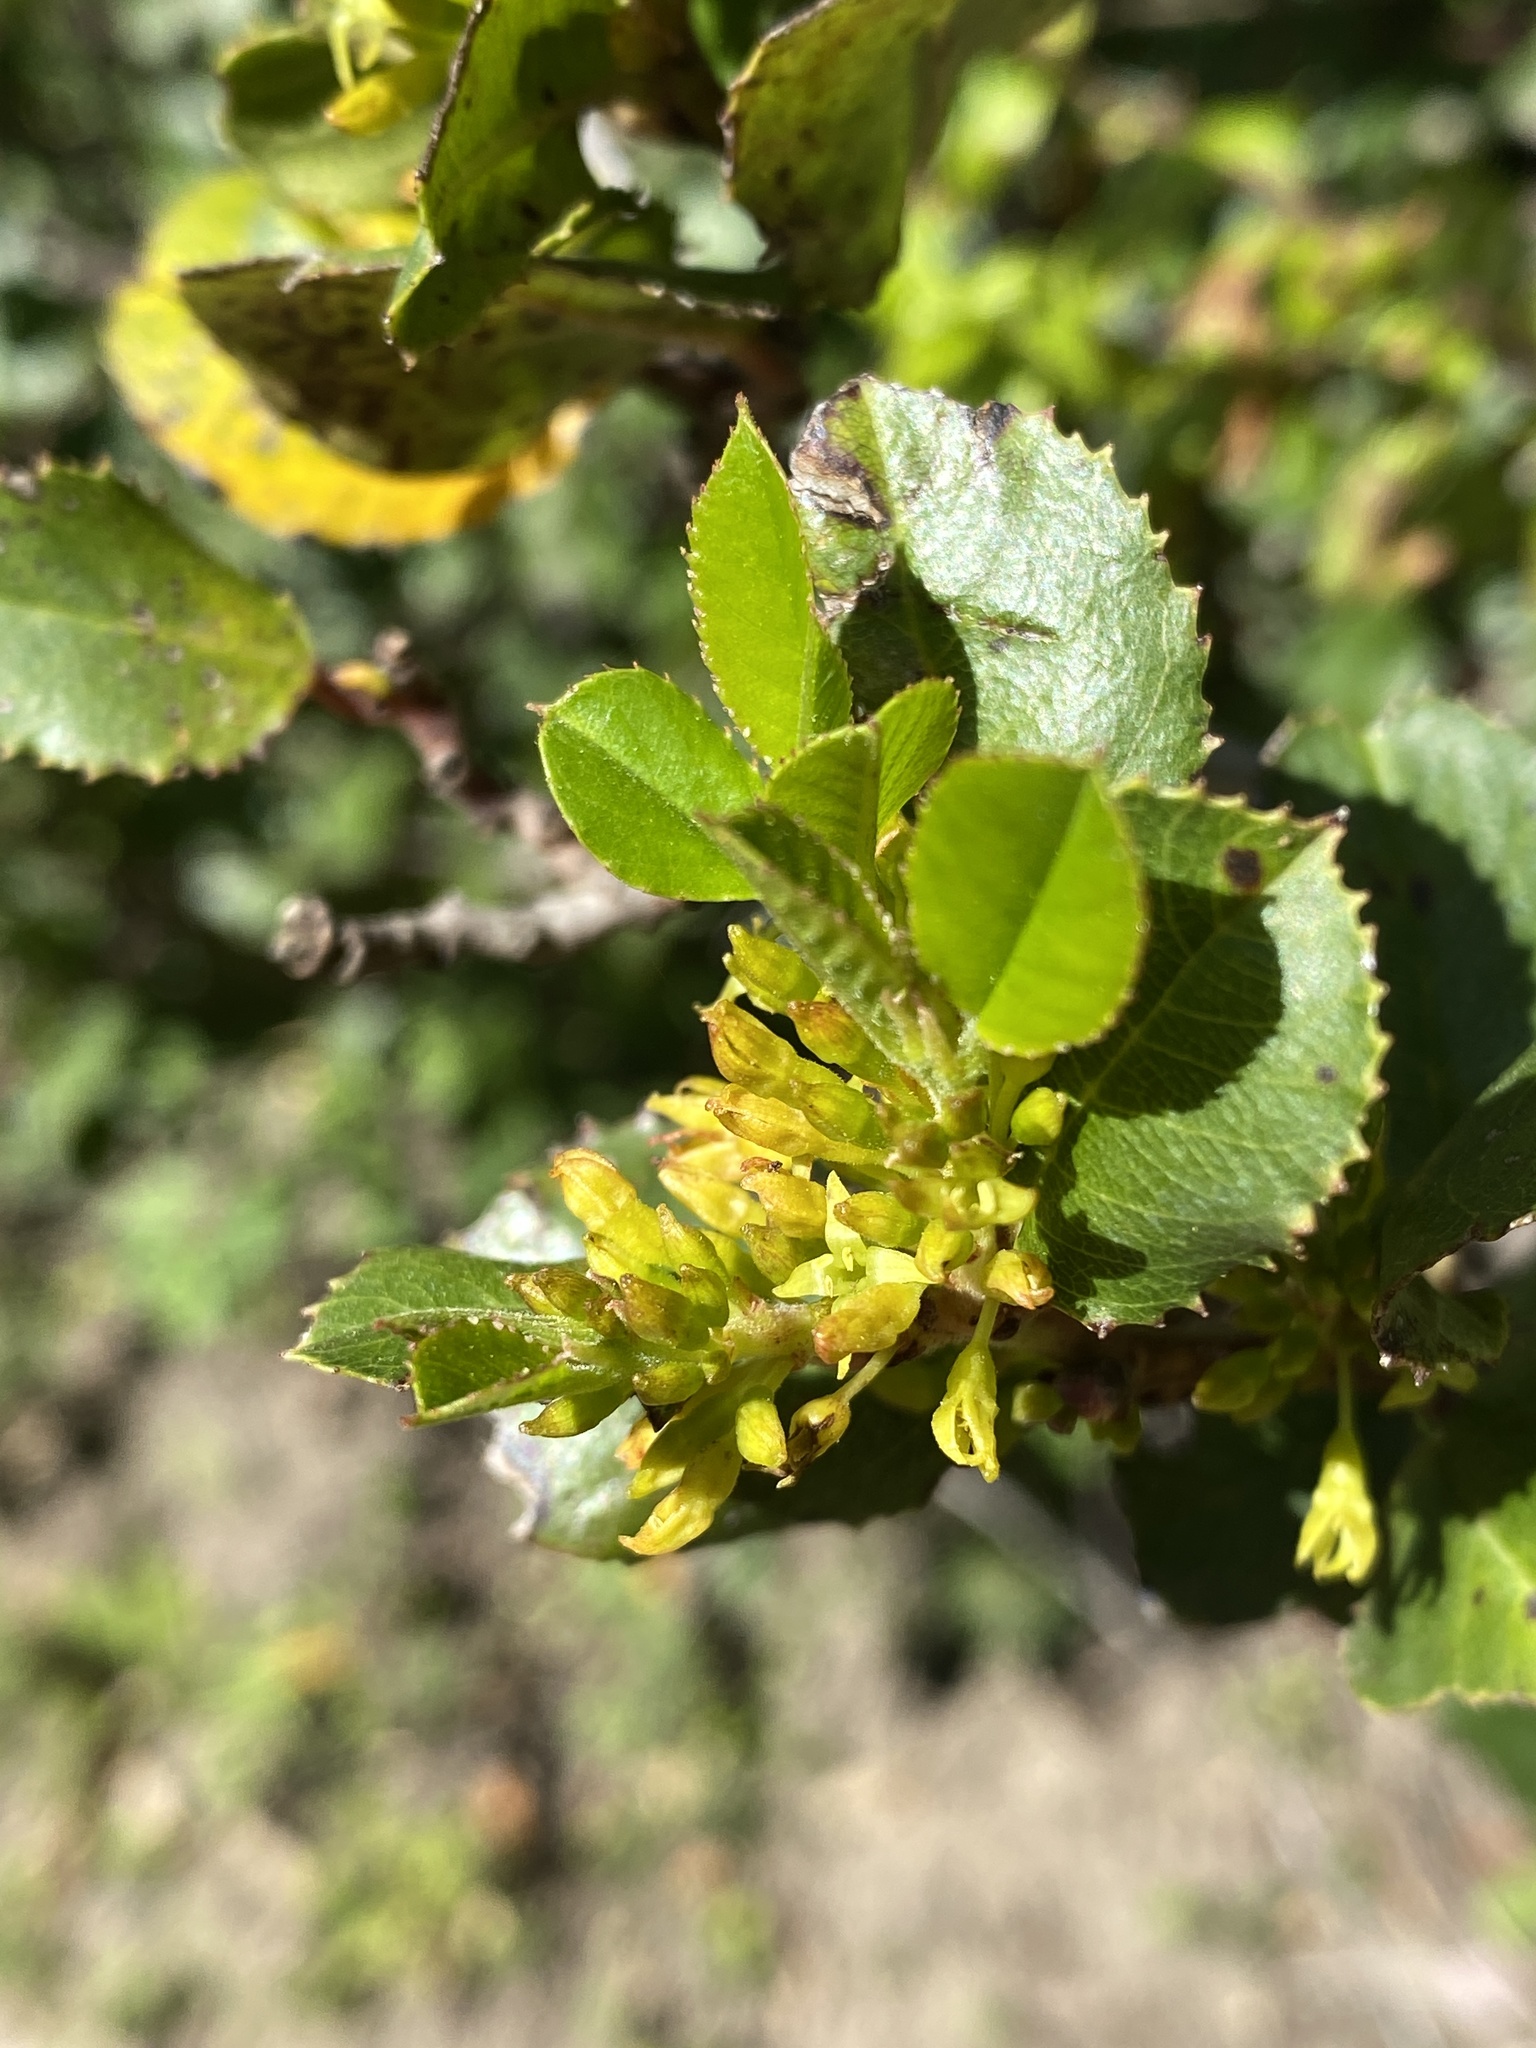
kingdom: Plantae
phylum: Tracheophyta
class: Magnoliopsida
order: Rosales
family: Rhamnaceae
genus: Endotropis
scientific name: Endotropis crocea
